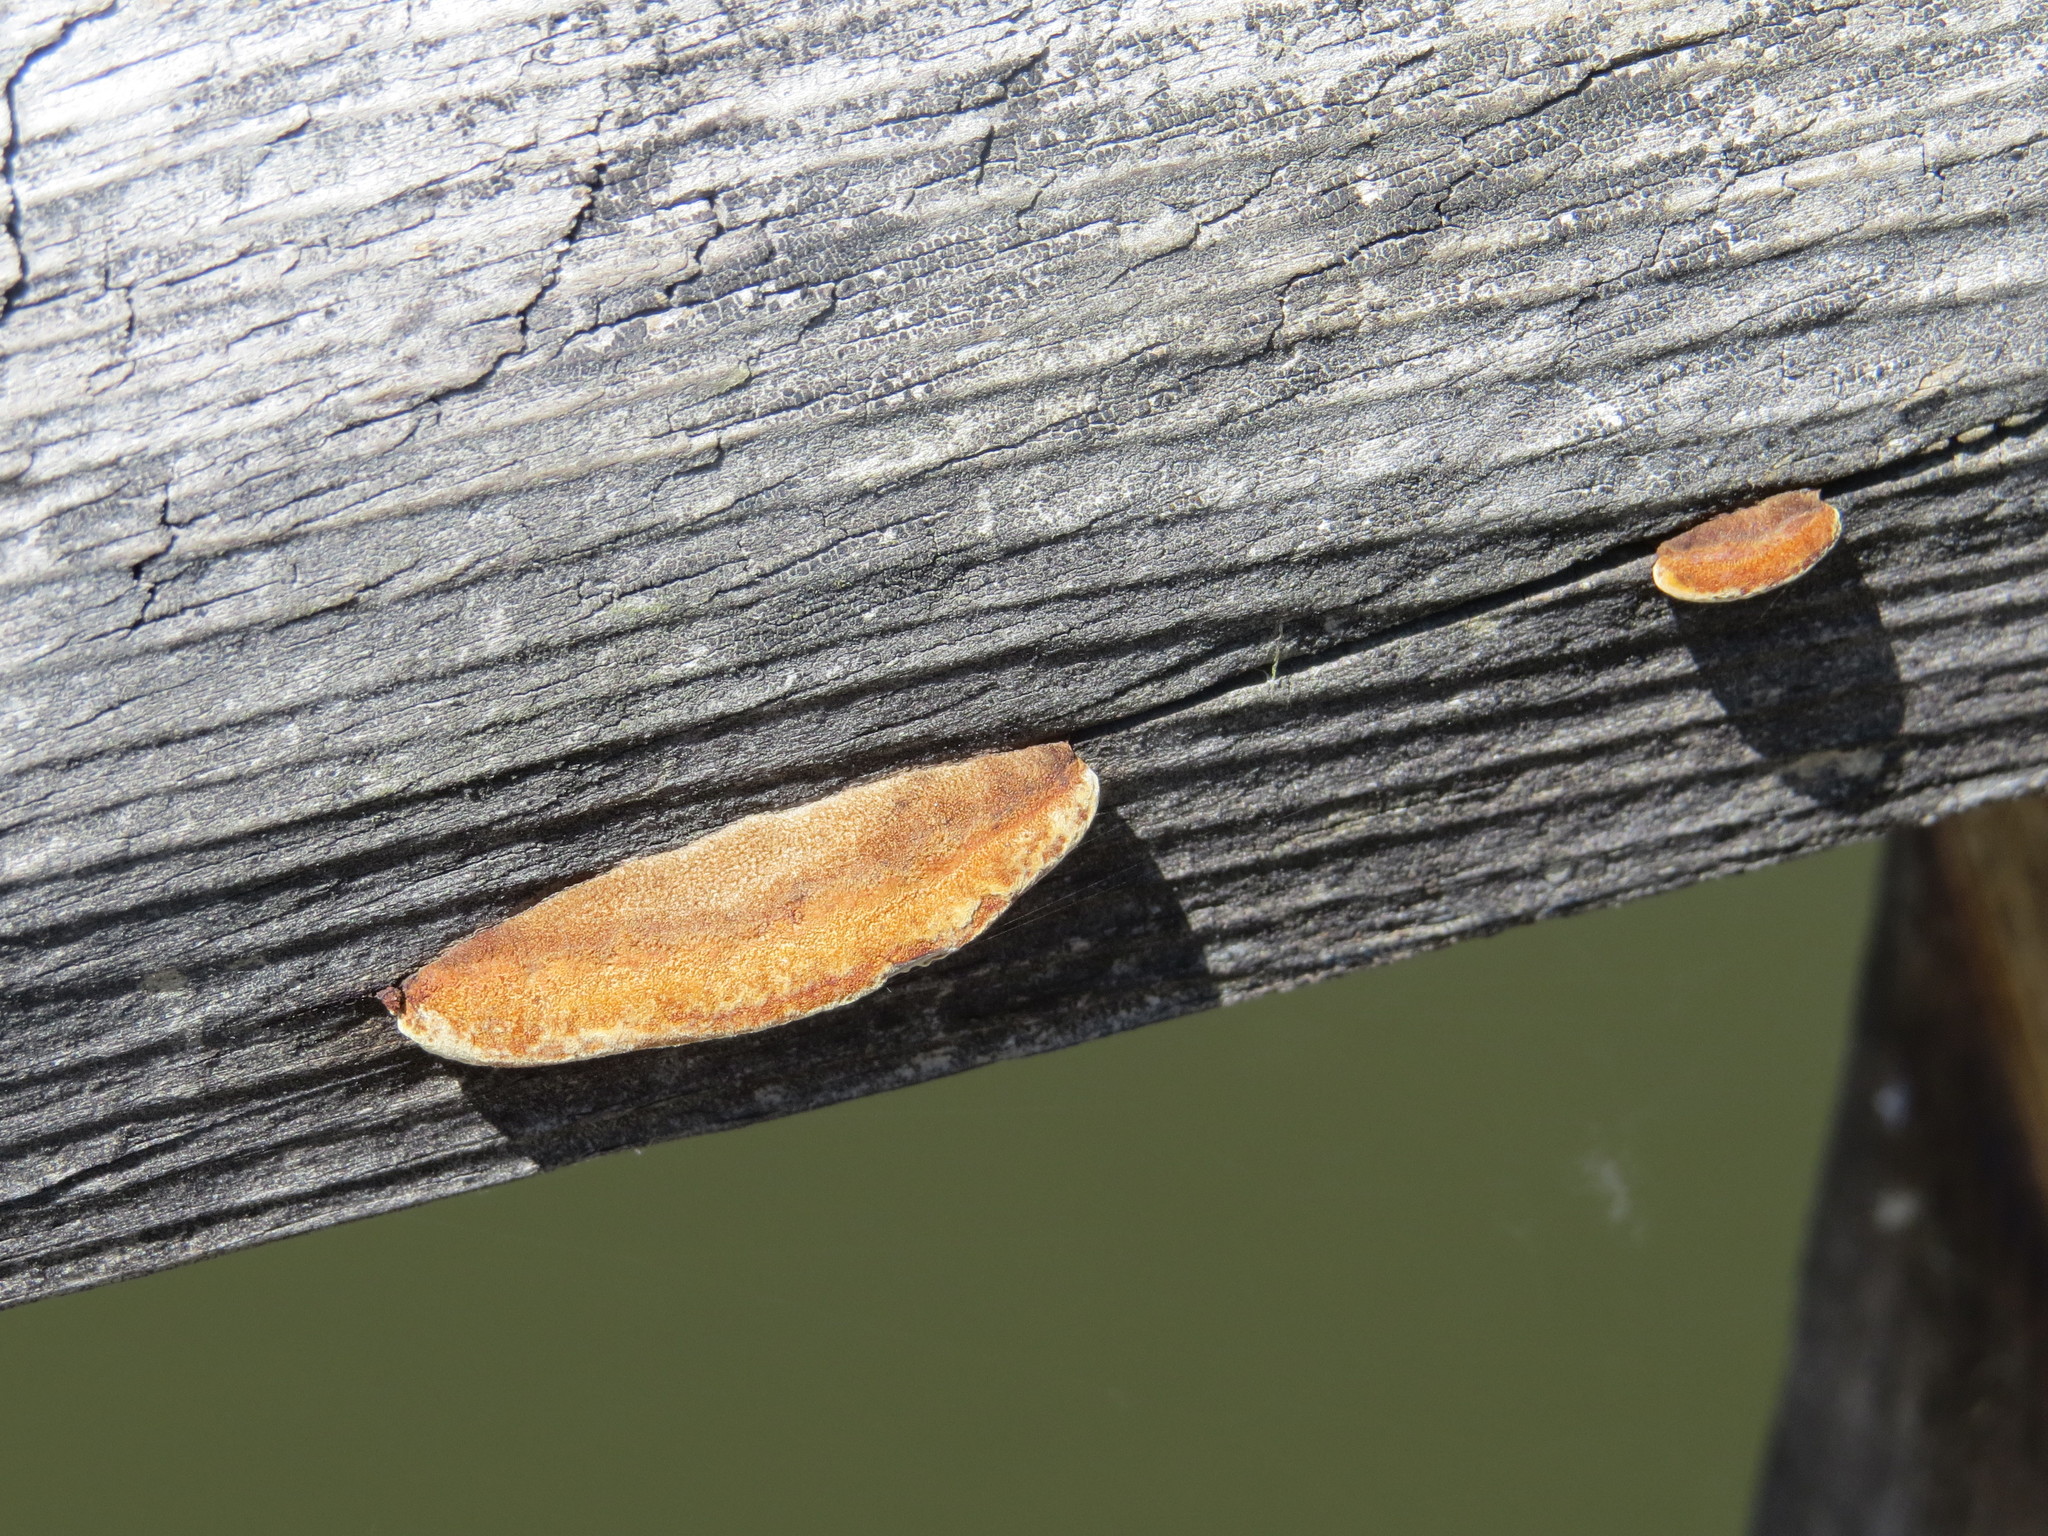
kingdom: Fungi
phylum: Basidiomycota
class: Agaricomycetes
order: Gloeophyllales
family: Gloeophyllaceae
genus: Gloeophyllum
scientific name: Gloeophyllum sepiarium
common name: Conifer mazegill
